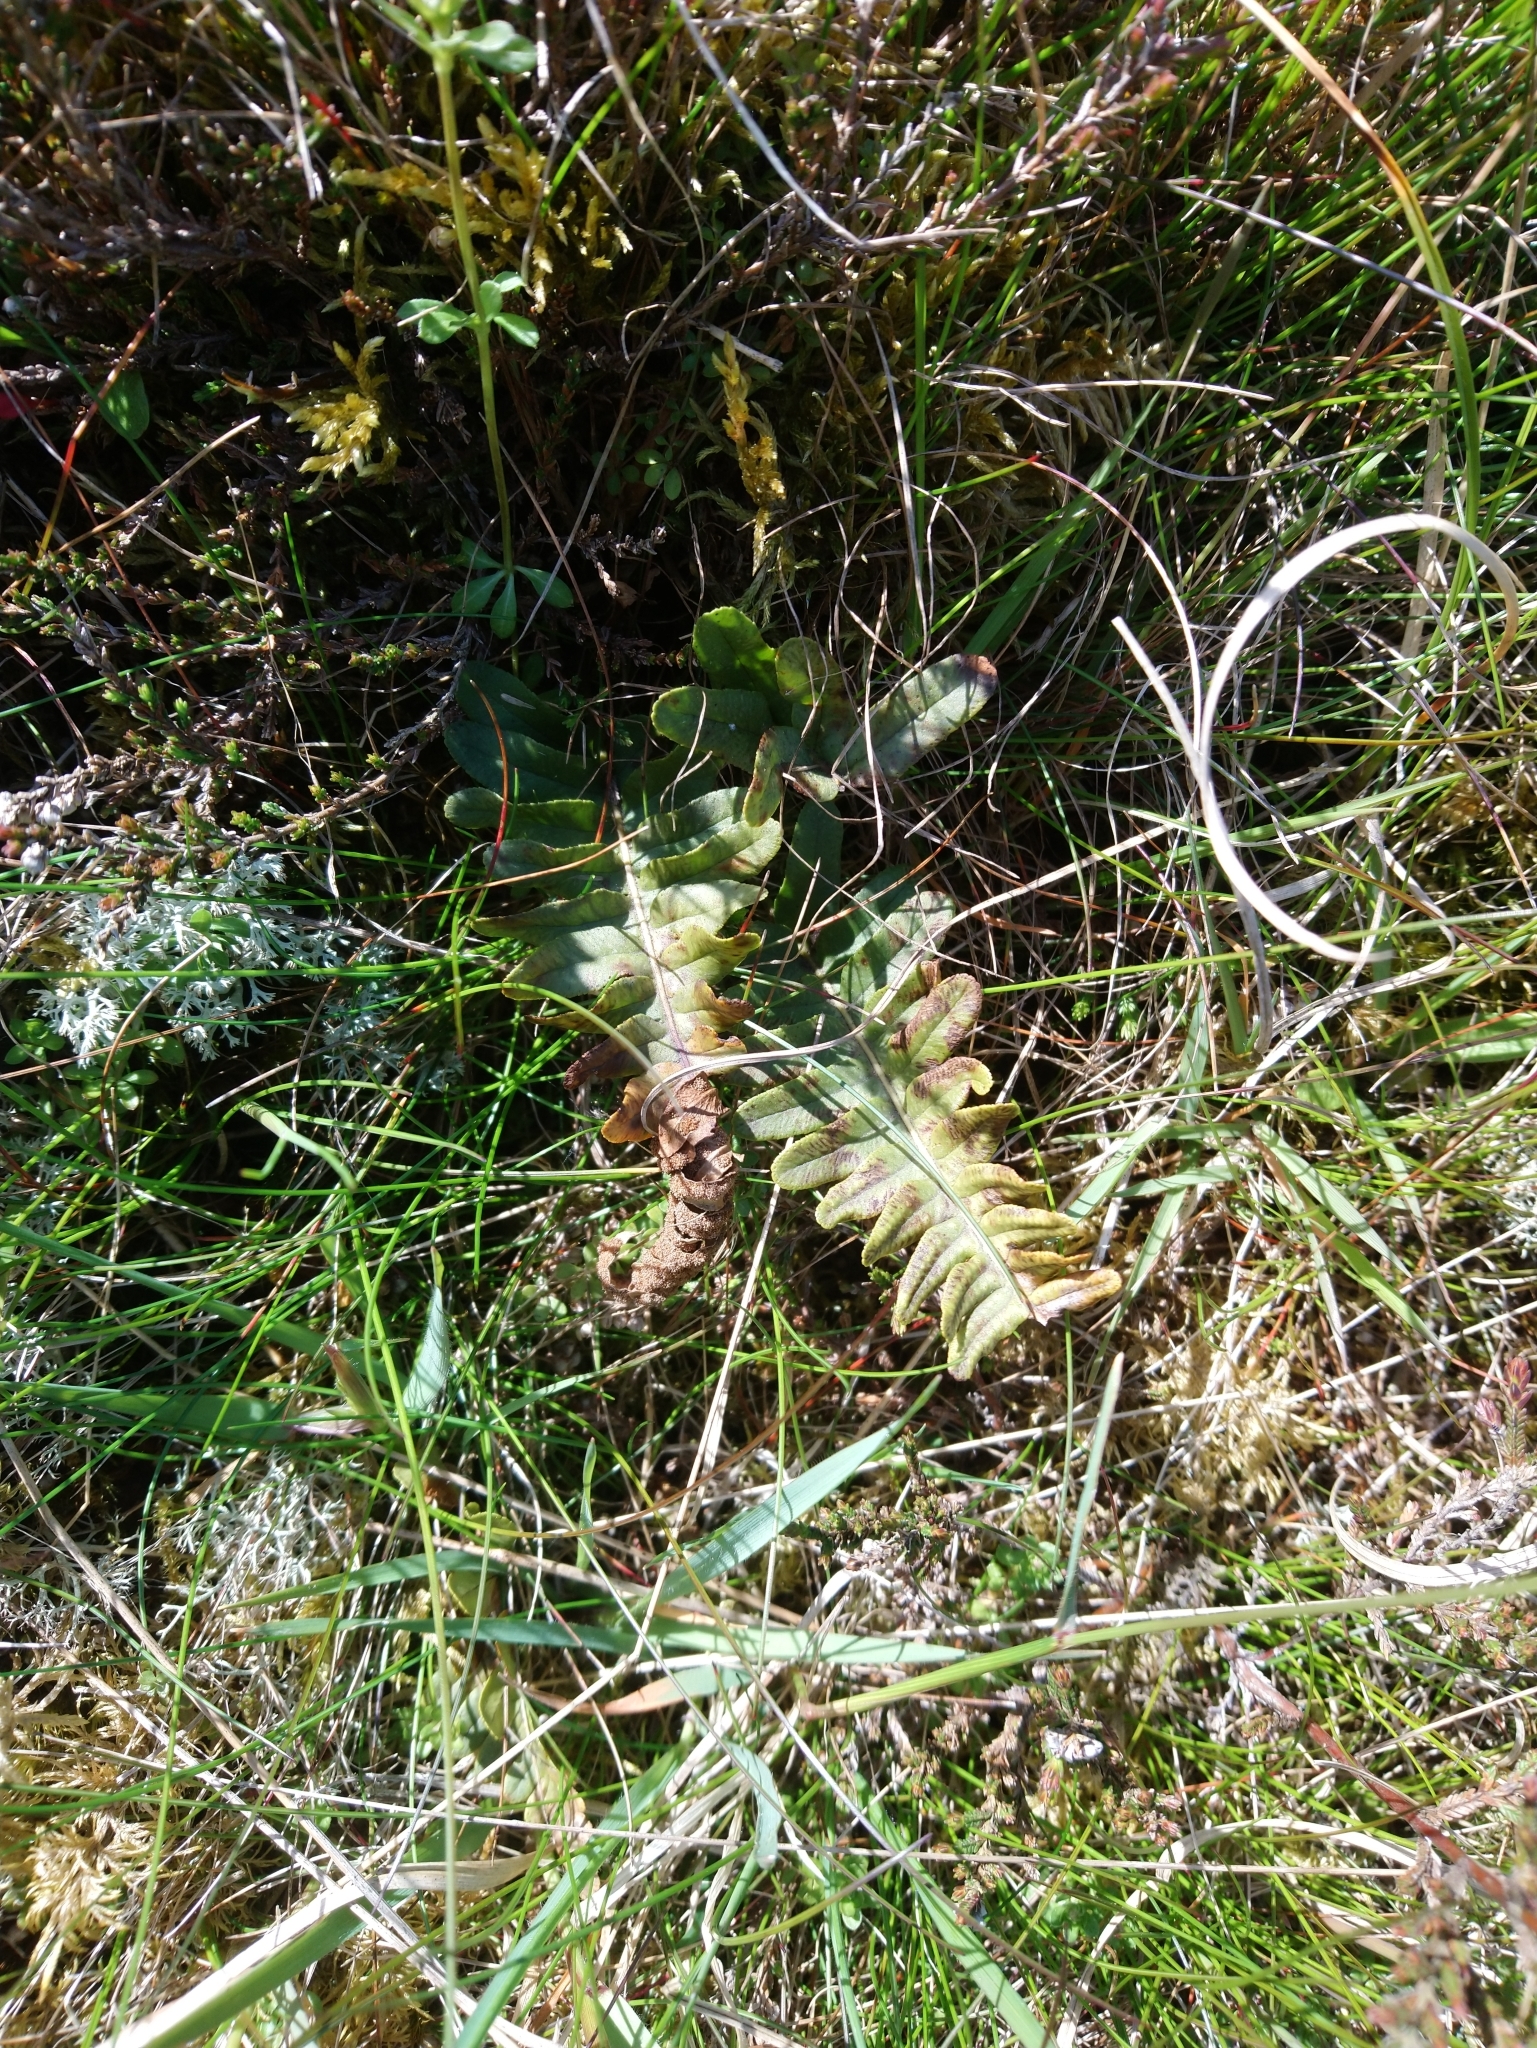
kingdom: Plantae
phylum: Tracheophyta
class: Polypodiopsida
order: Polypodiales
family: Polypodiaceae
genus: Polypodium
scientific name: Polypodium vulgare
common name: Common polypody
